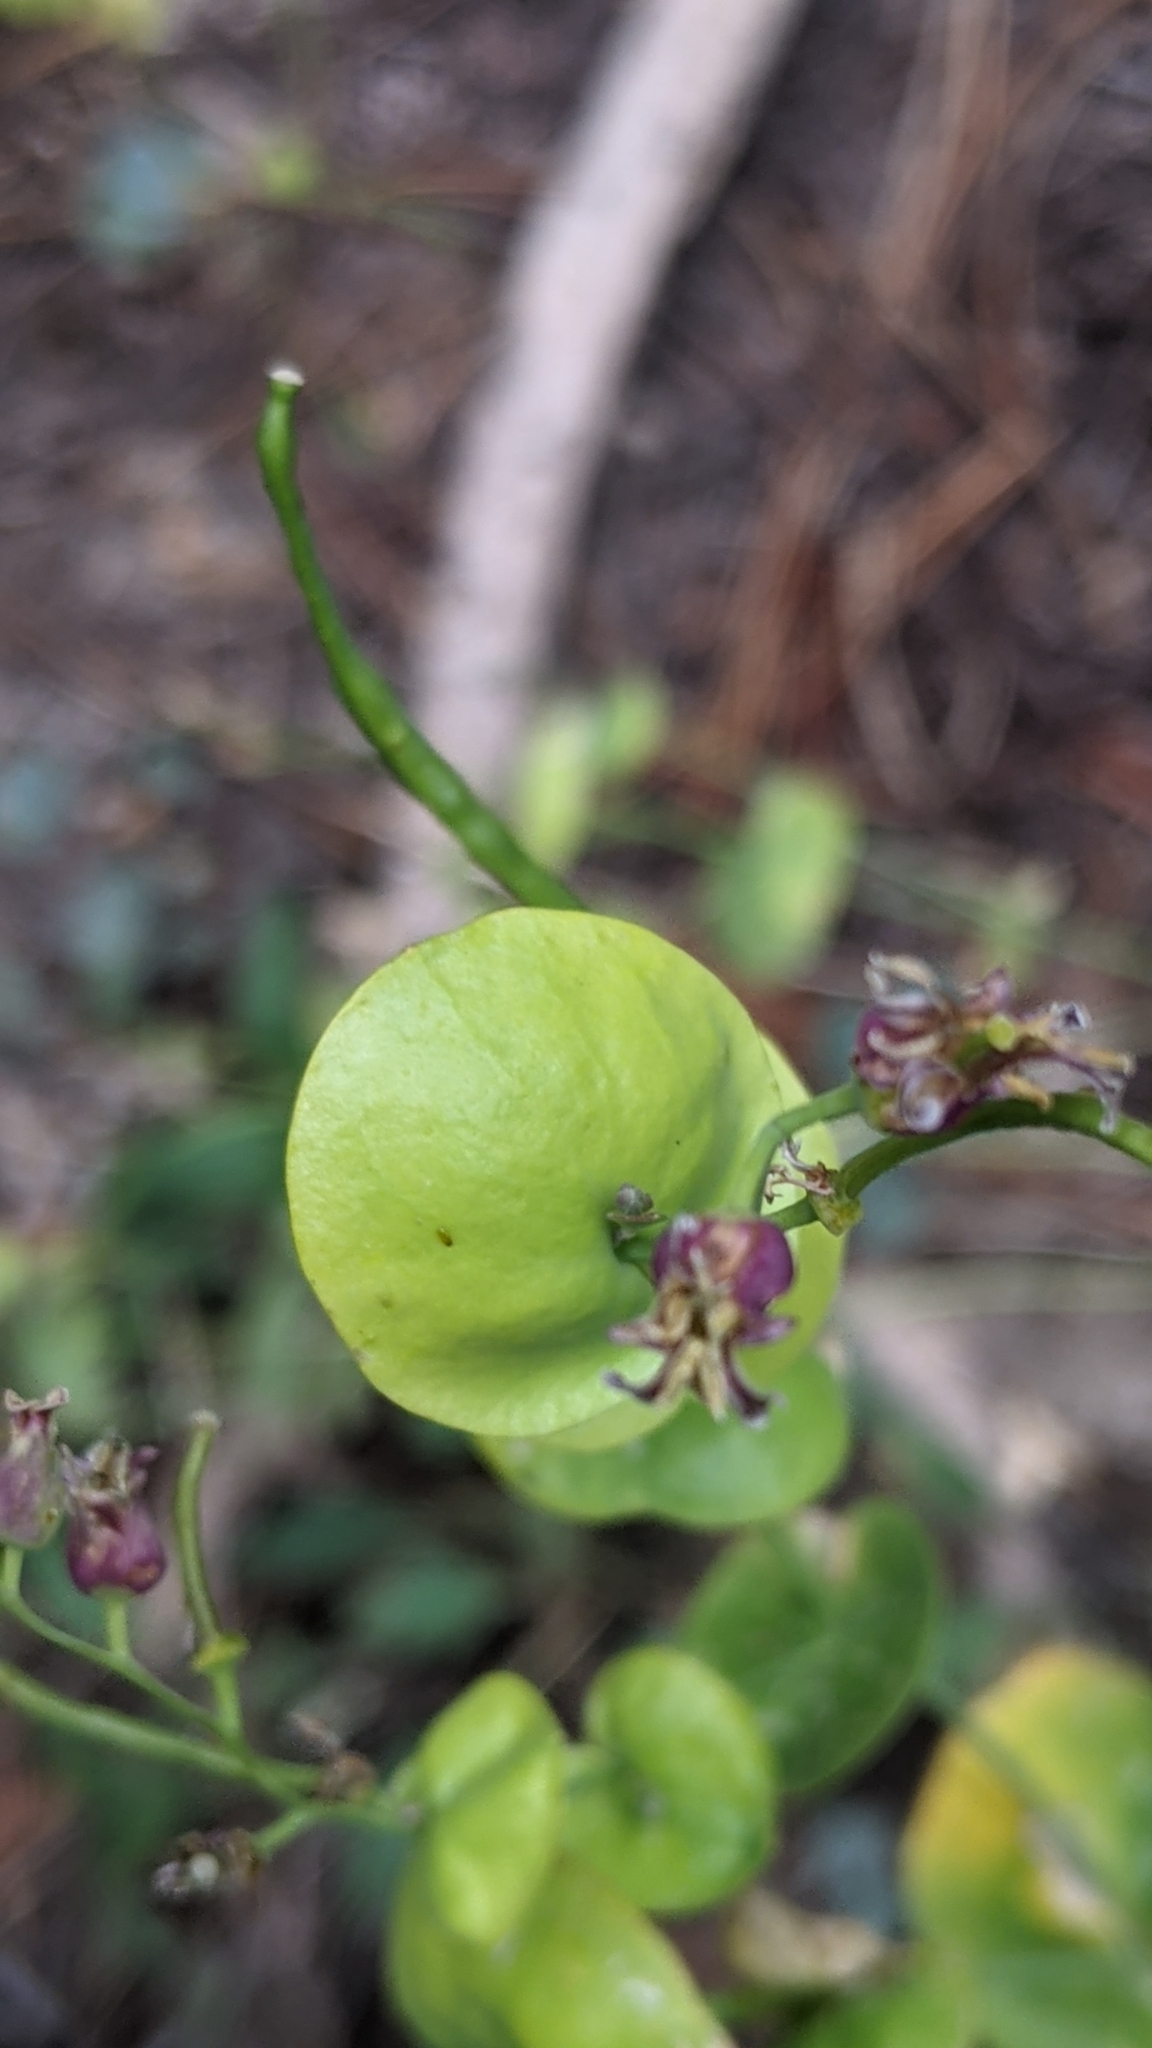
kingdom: Plantae
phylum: Tracheophyta
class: Magnoliopsida
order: Brassicales
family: Brassicaceae
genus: Streptanthus
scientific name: Streptanthus tortuosus
